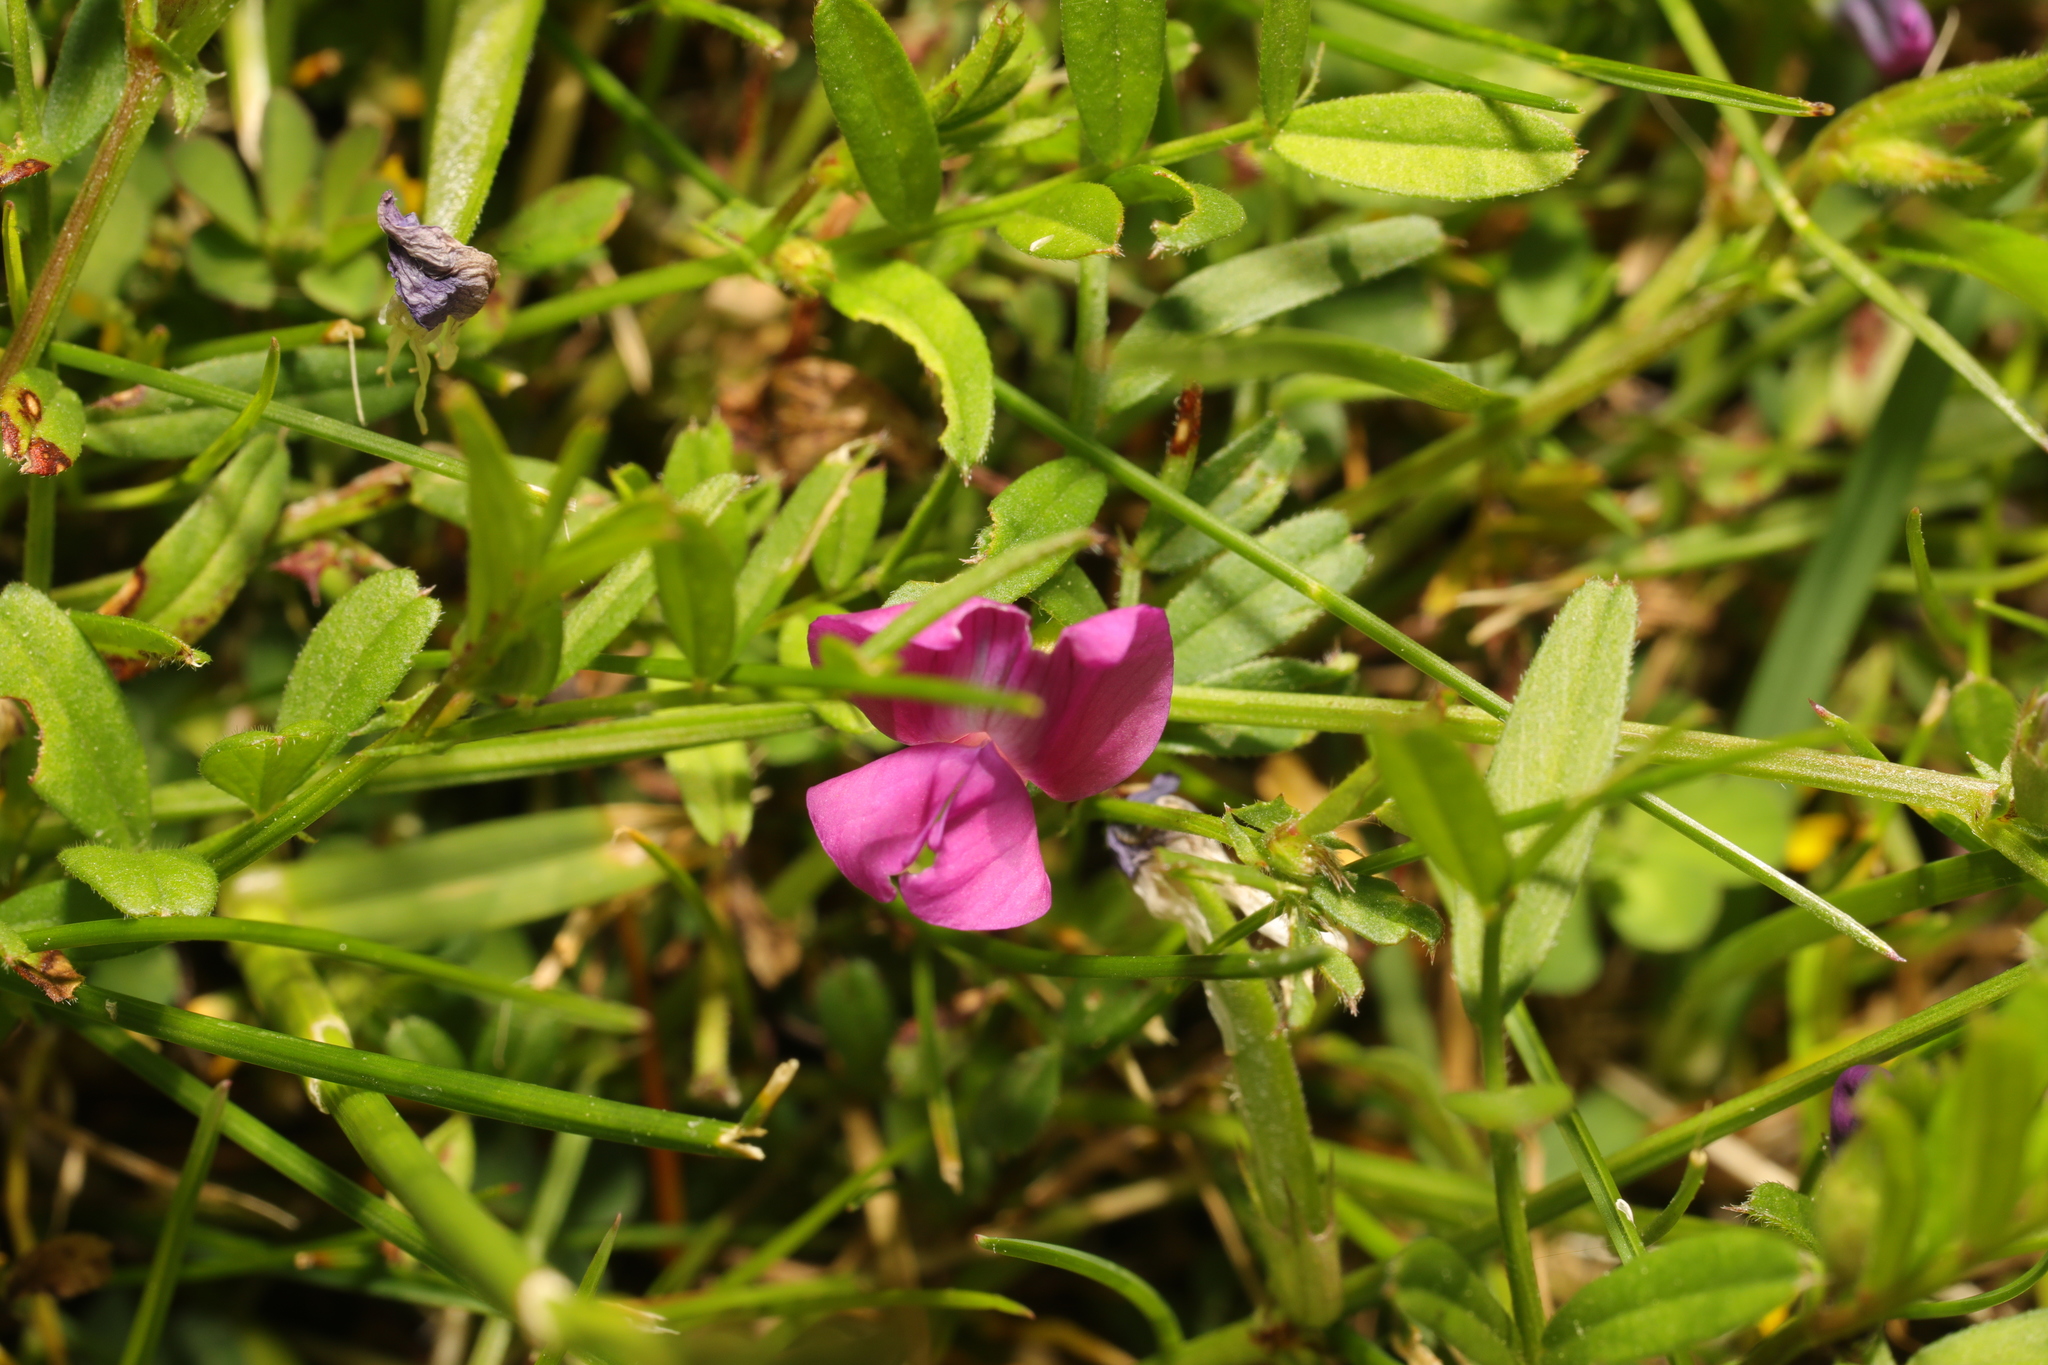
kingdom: Plantae
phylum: Tracheophyta
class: Magnoliopsida
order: Fabales
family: Fabaceae
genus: Vicia
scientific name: Vicia sativa
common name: Garden vetch
